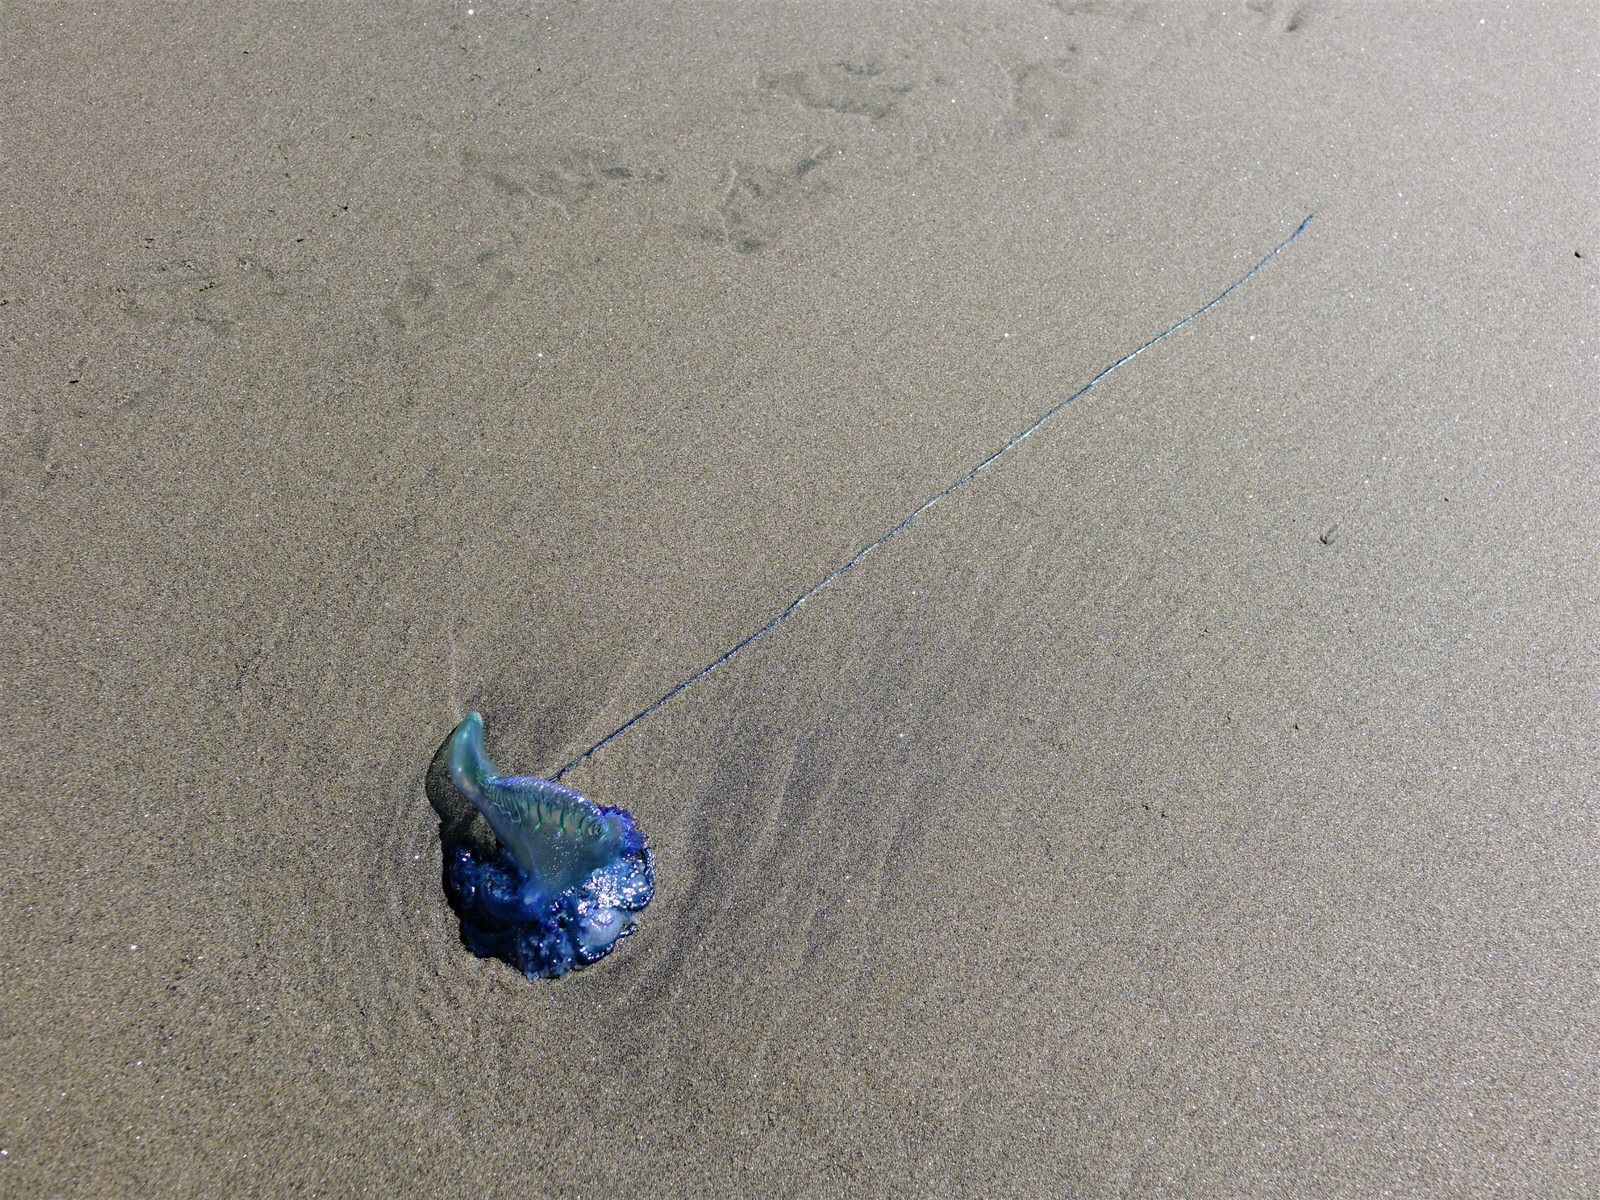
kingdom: Animalia
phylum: Cnidaria
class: Hydrozoa
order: Siphonophorae
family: Physaliidae
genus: Physalia
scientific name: Physalia physalis
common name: Portuguese man-of-war
